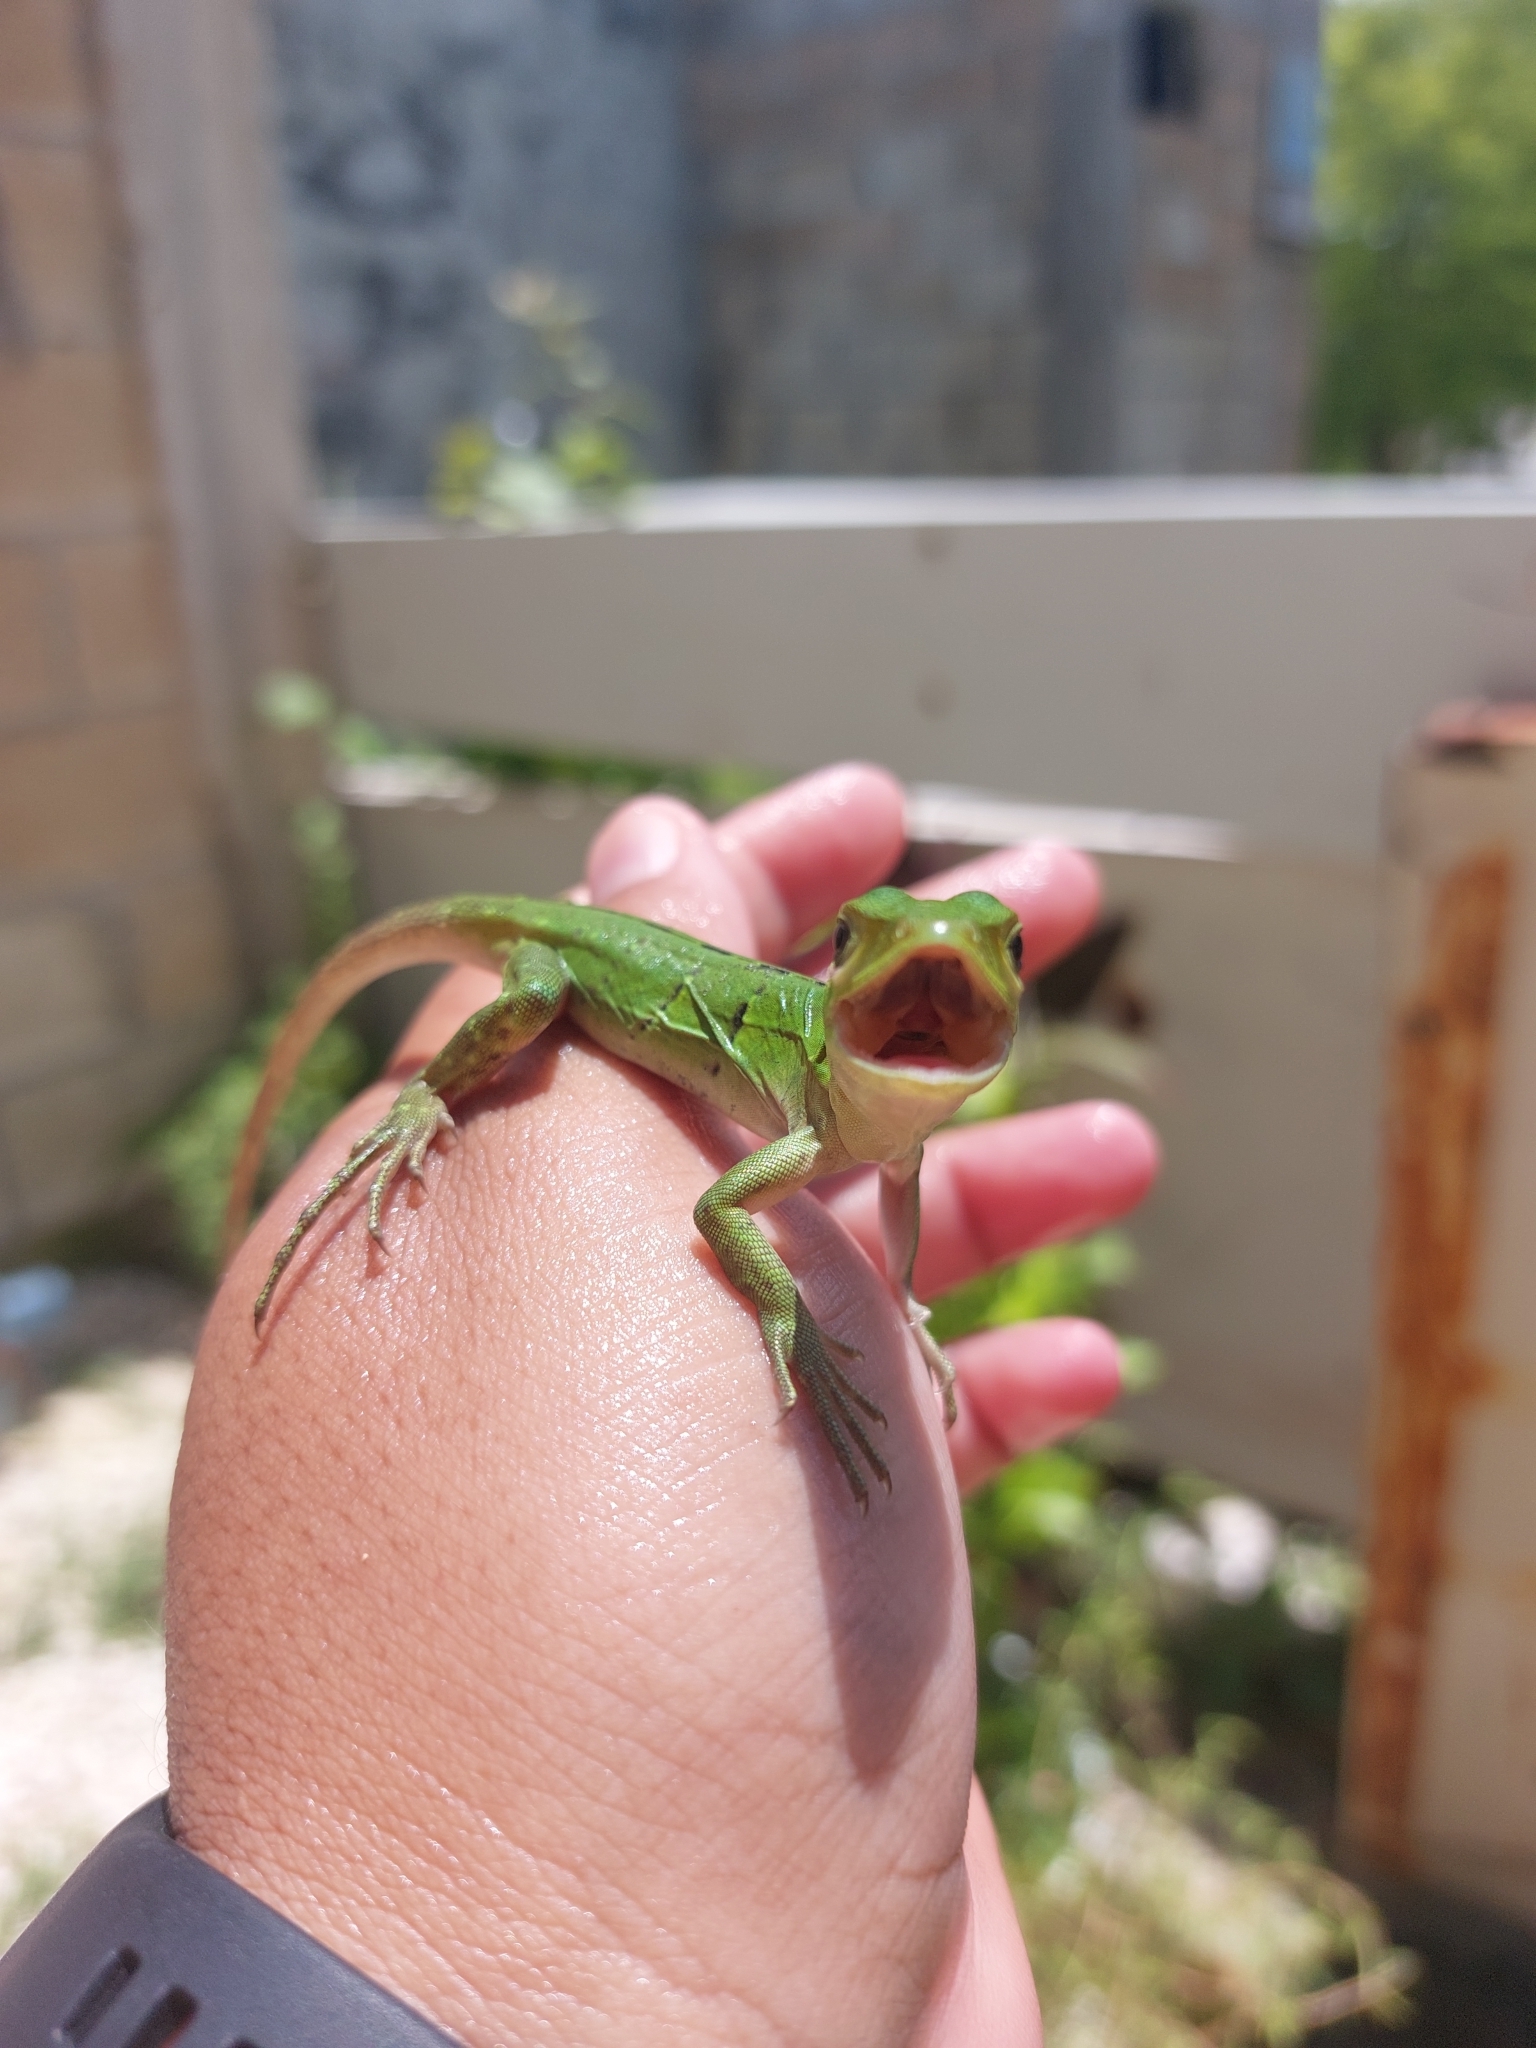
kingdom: Animalia
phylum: Chordata
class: Squamata
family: Iguanidae
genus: Ctenosaura
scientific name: Ctenosaura similis
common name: Black spiny-tailed iguana
